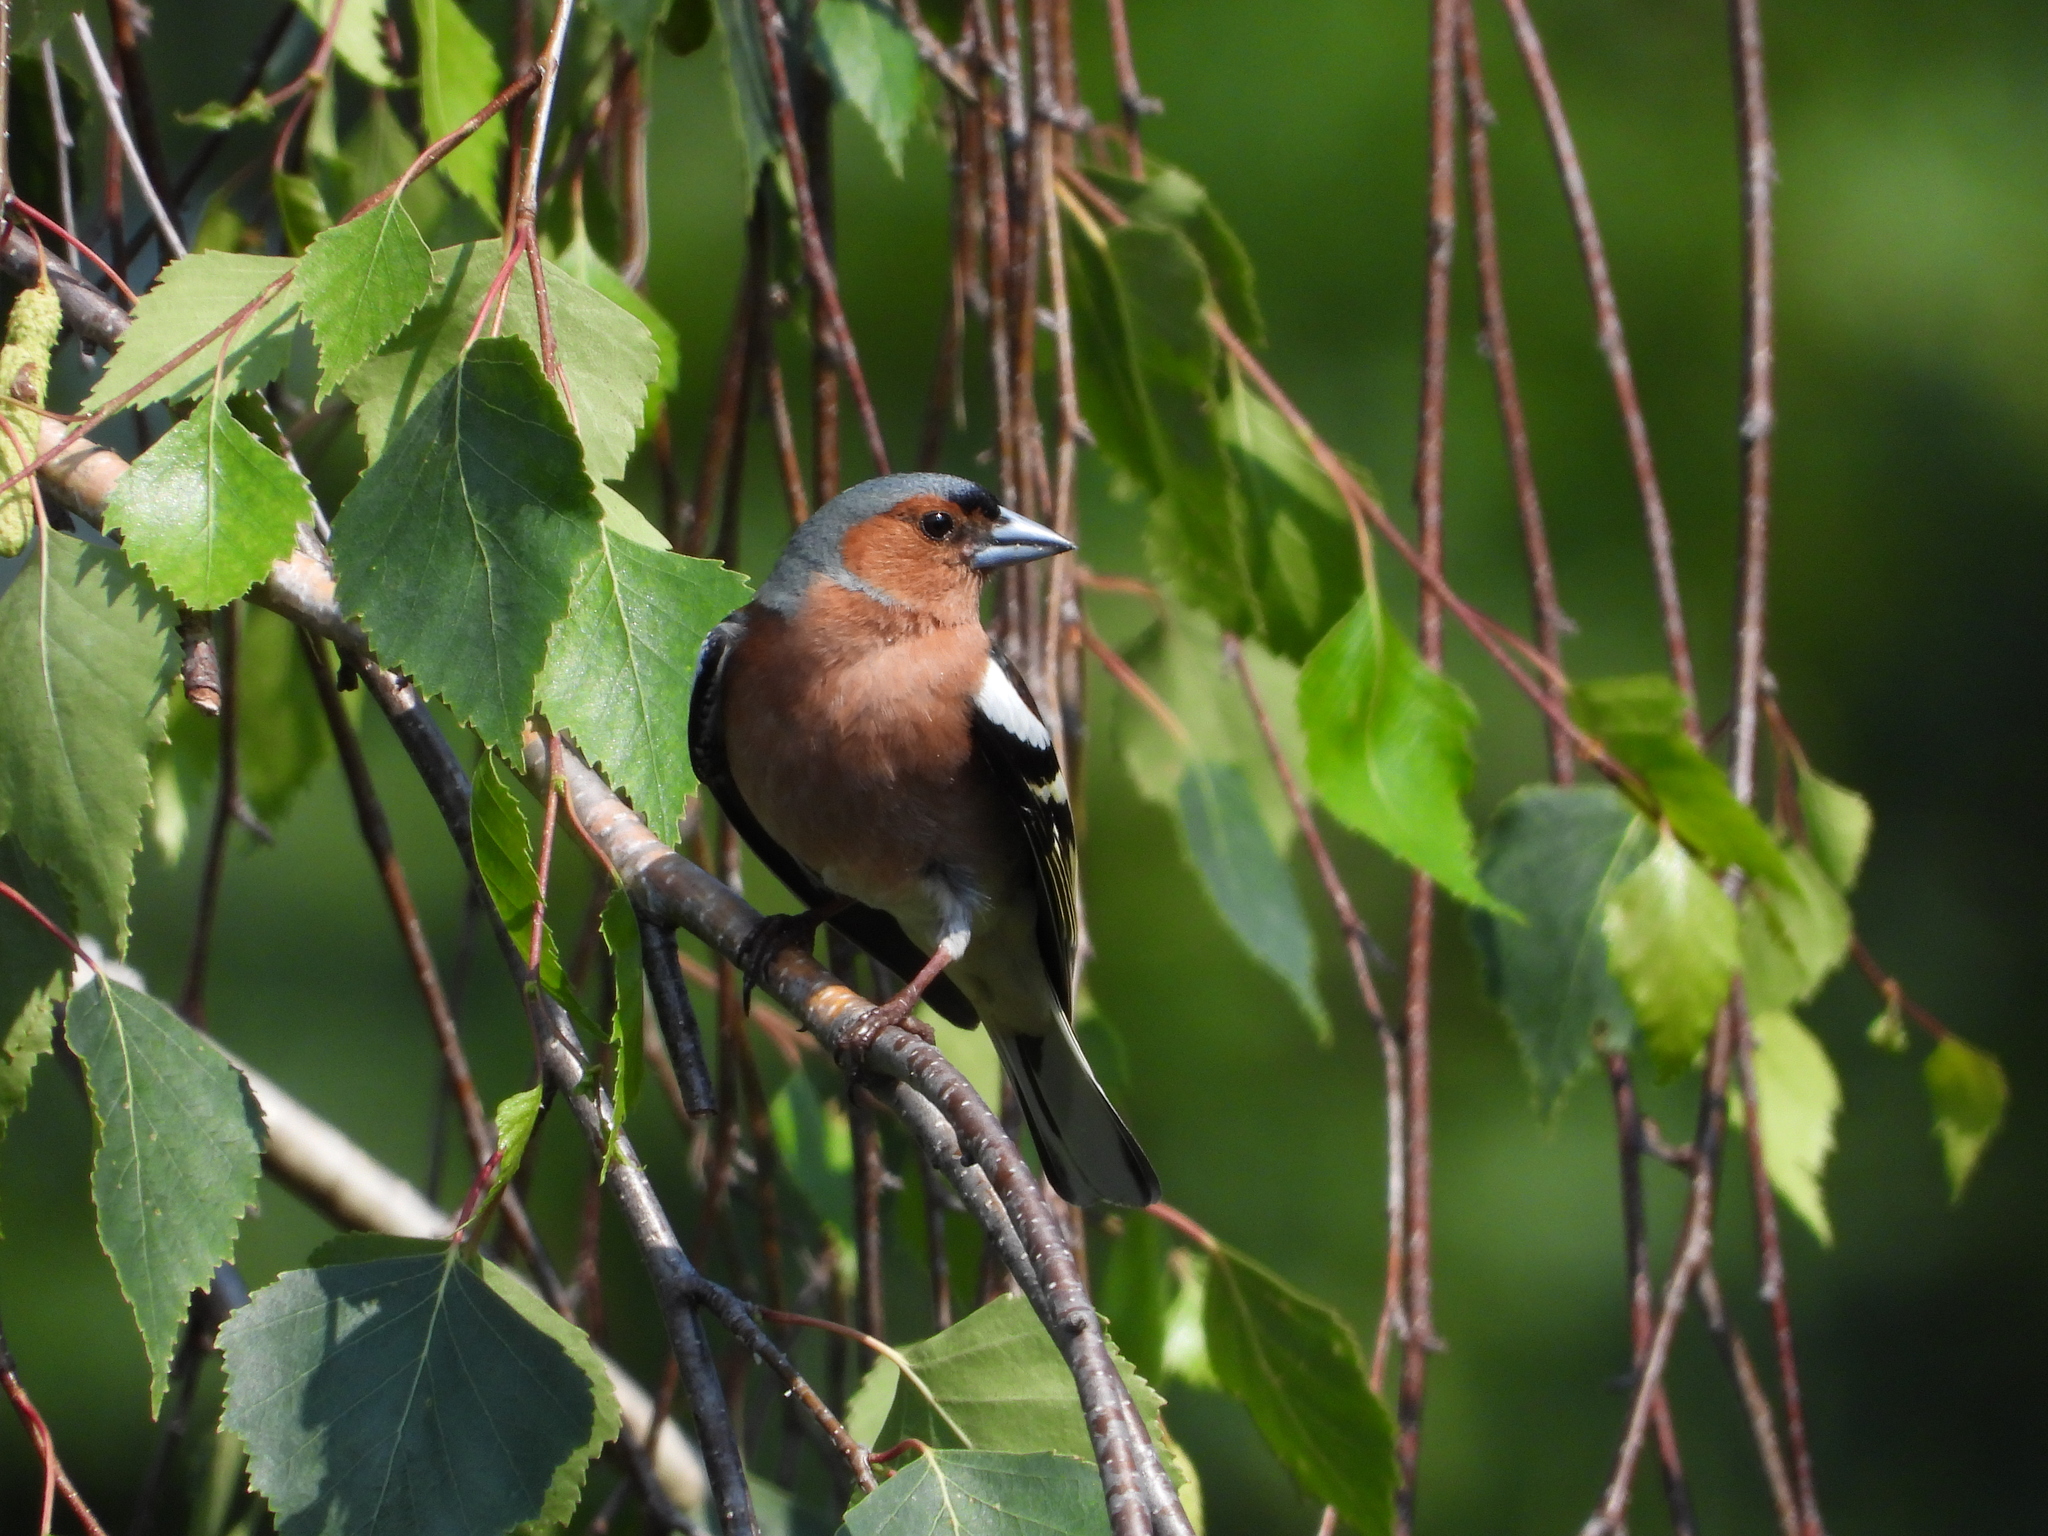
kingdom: Animalia
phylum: Chordata
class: Aves
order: Passeriformes
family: Fringillidae
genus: Fringilla
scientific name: Fringilla coelebs
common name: Common chaffinch
